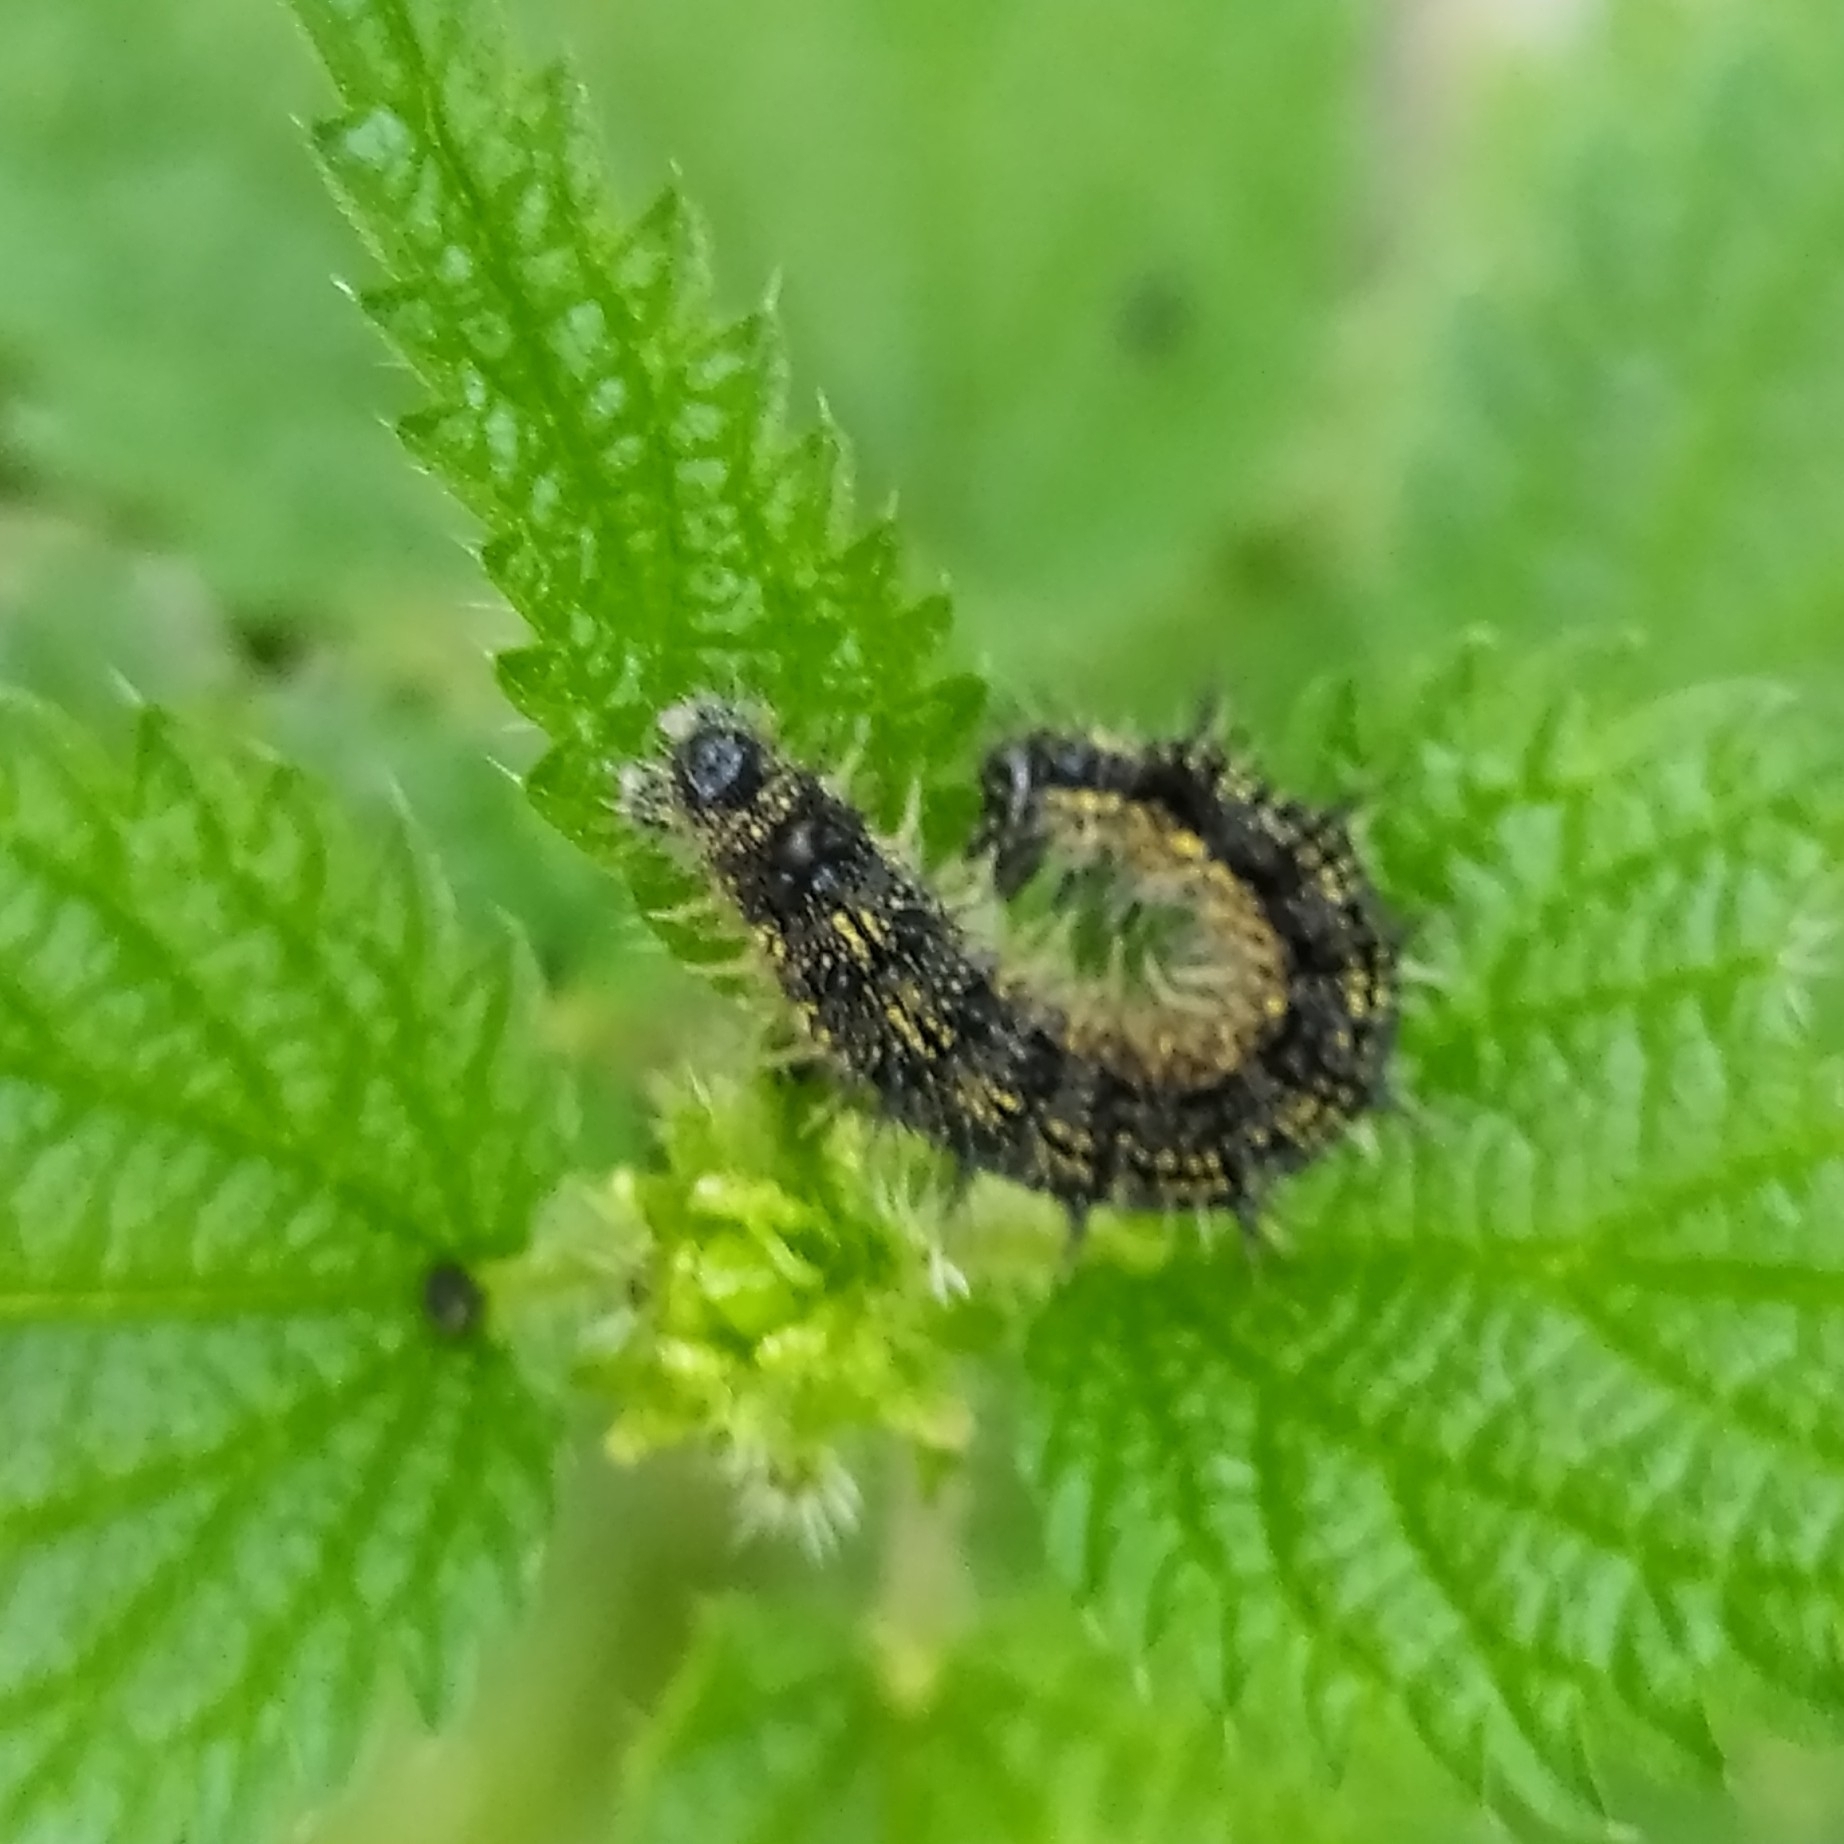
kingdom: Animalia
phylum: Arthropoda
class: Insecta
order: Lepidoptera
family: Nymphalidae
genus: Aglais
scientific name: Aglais urticae
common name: Small tortoiseshell
